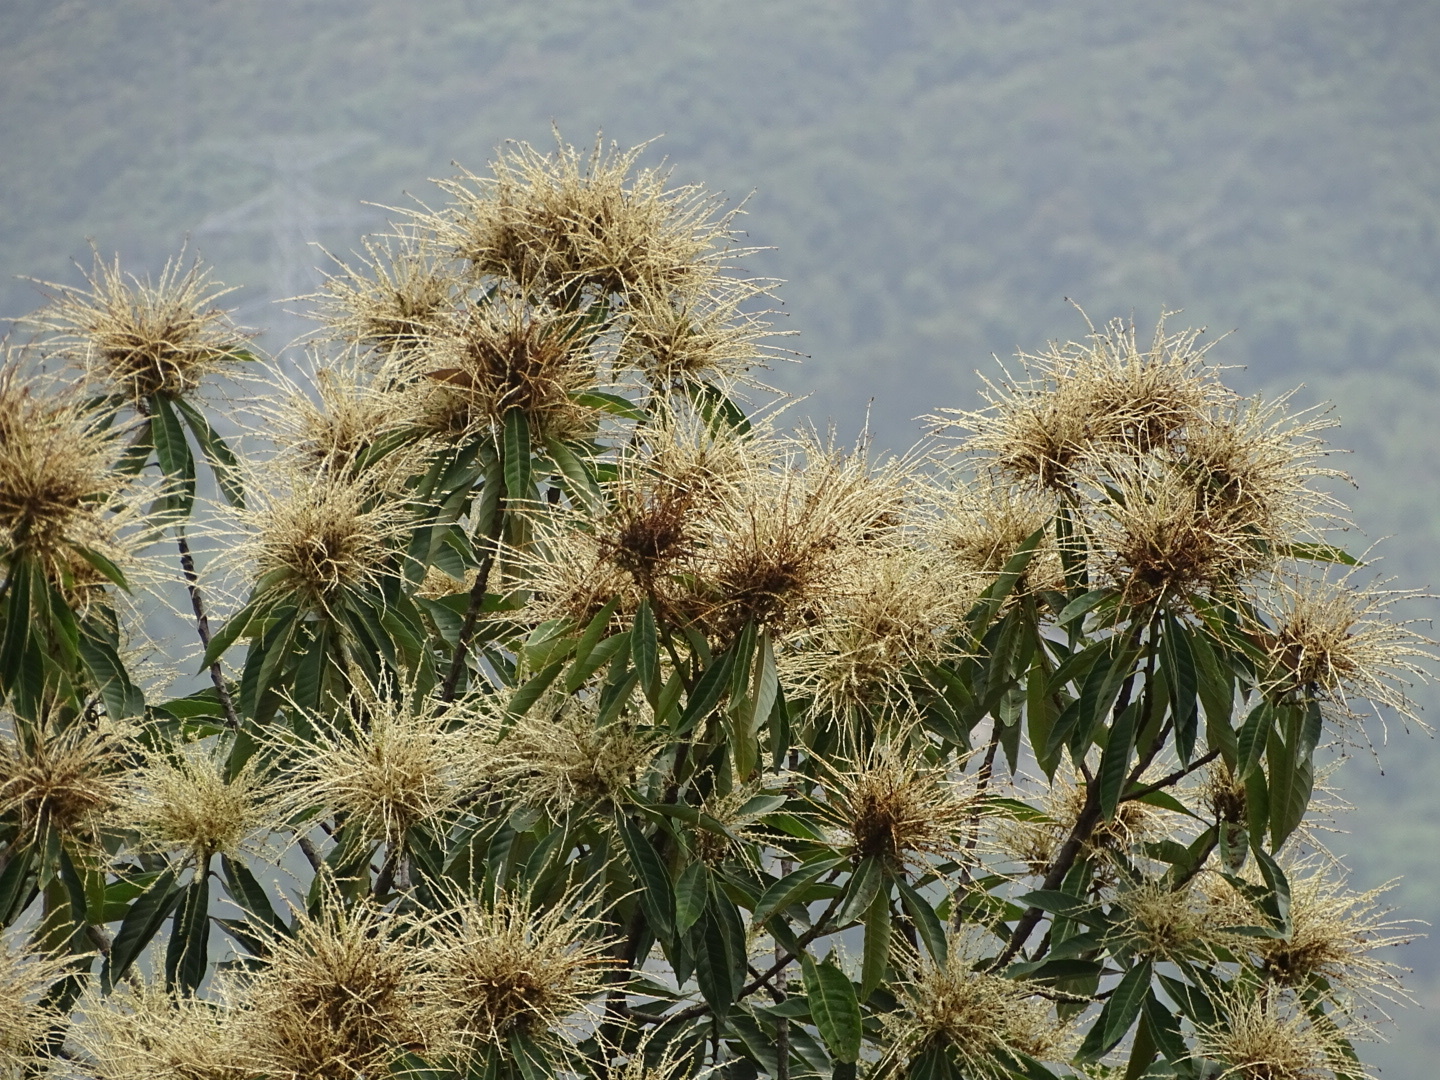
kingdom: Plantae
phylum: Tracheophyta
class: Magnoliopsida
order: Fagales
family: Fagaceae
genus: Castanopsis
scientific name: Castanopsis fissa
